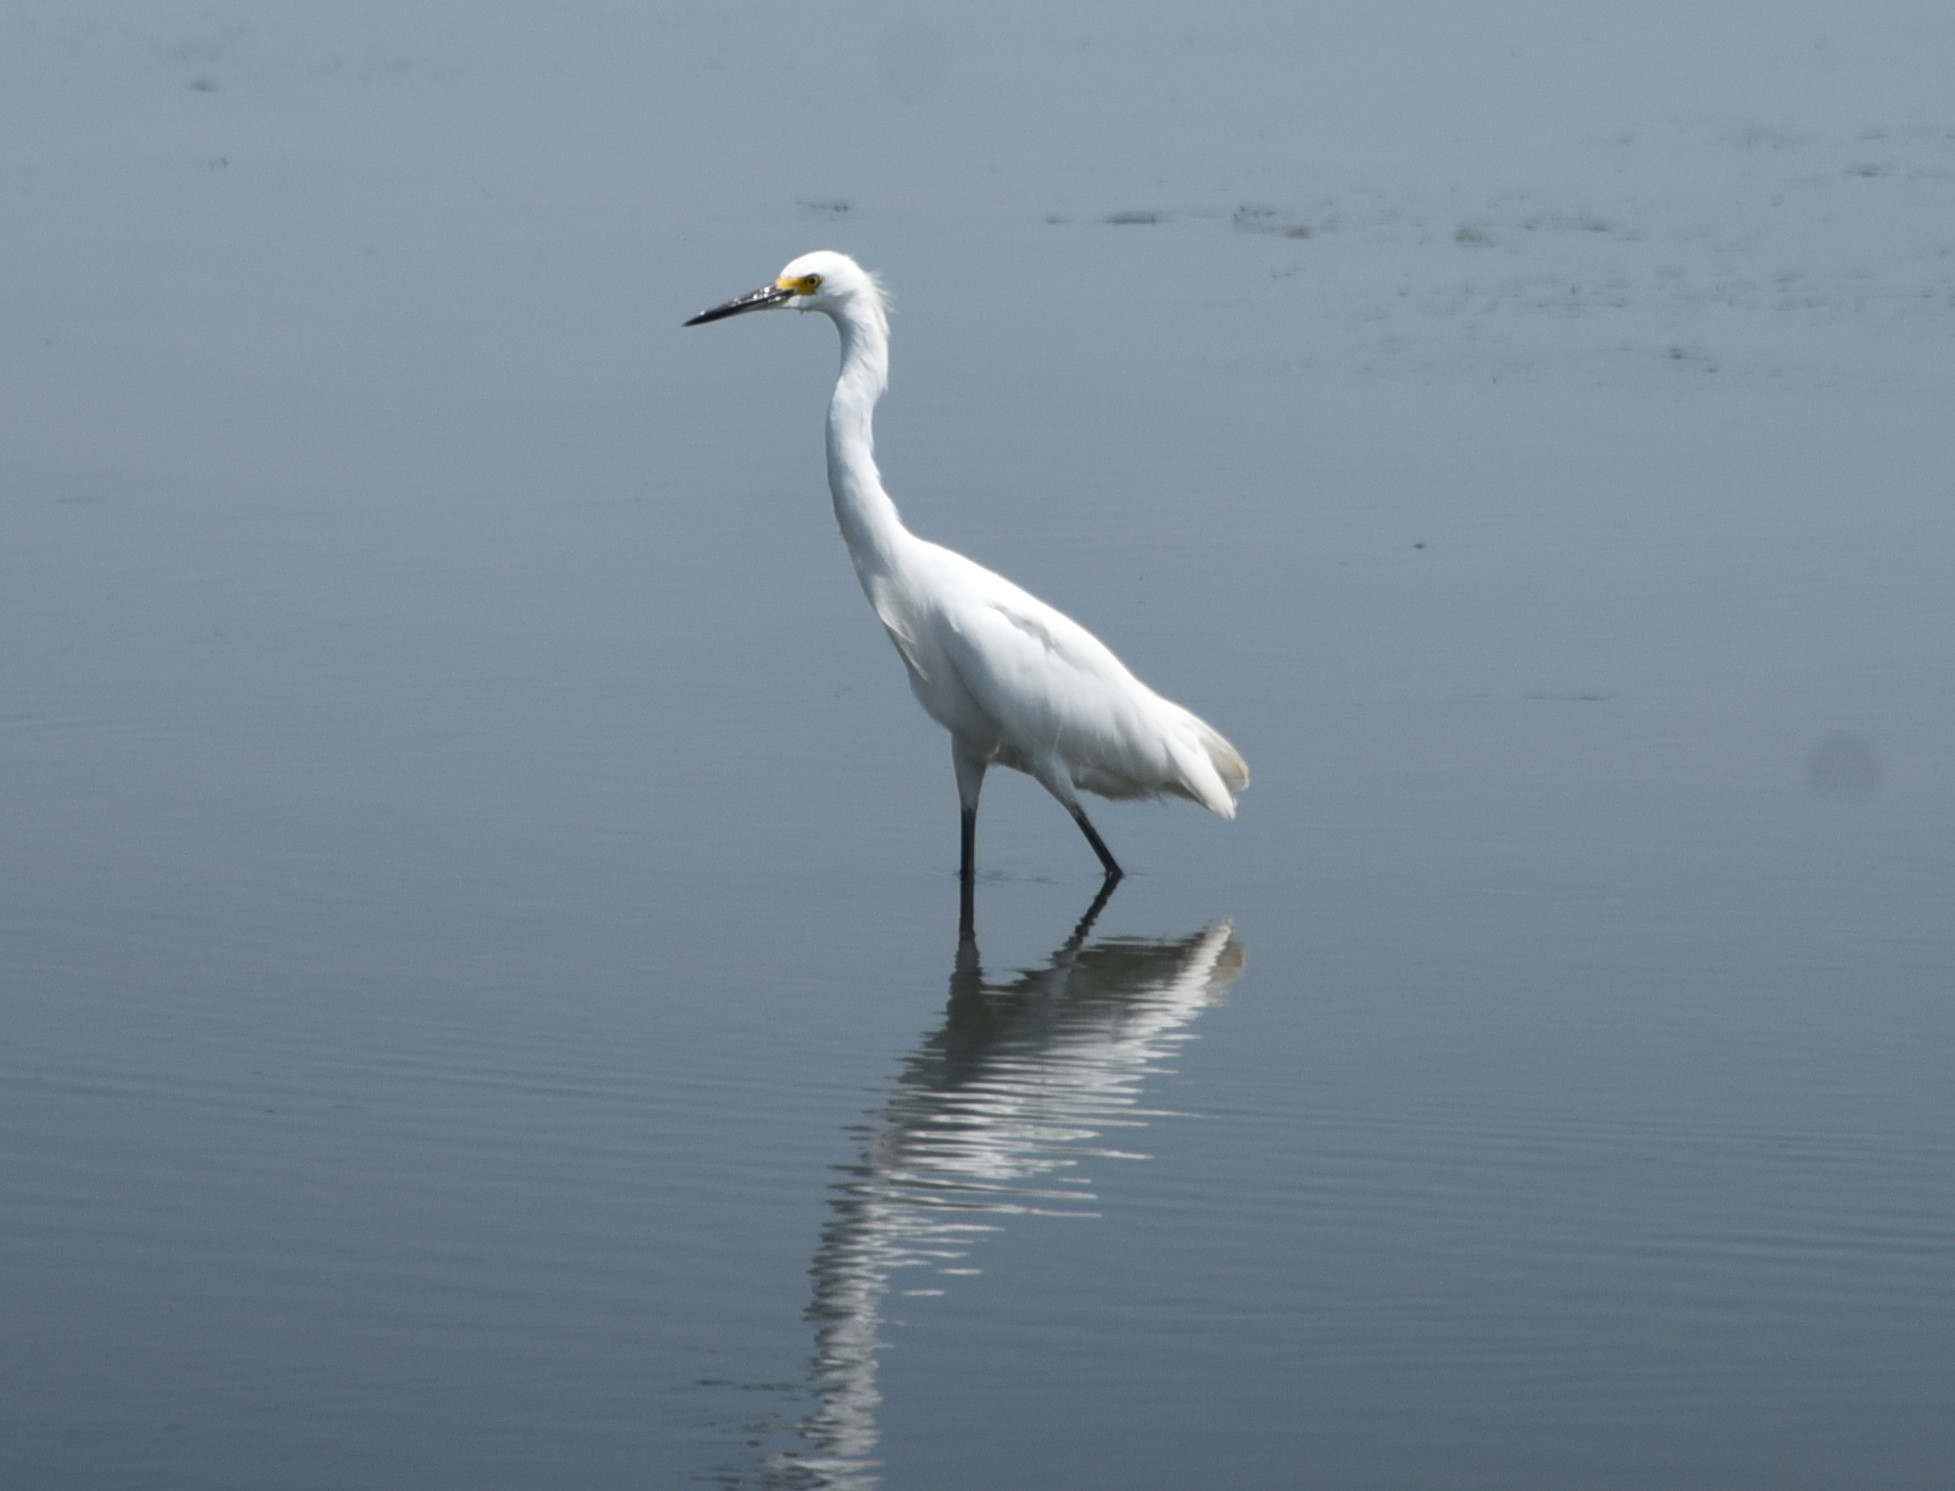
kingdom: Animalia
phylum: Chordata
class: Aves
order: Pelecaniformes
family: Ardeidae
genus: Egretta
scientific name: Egretta thula
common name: Snowy egret
